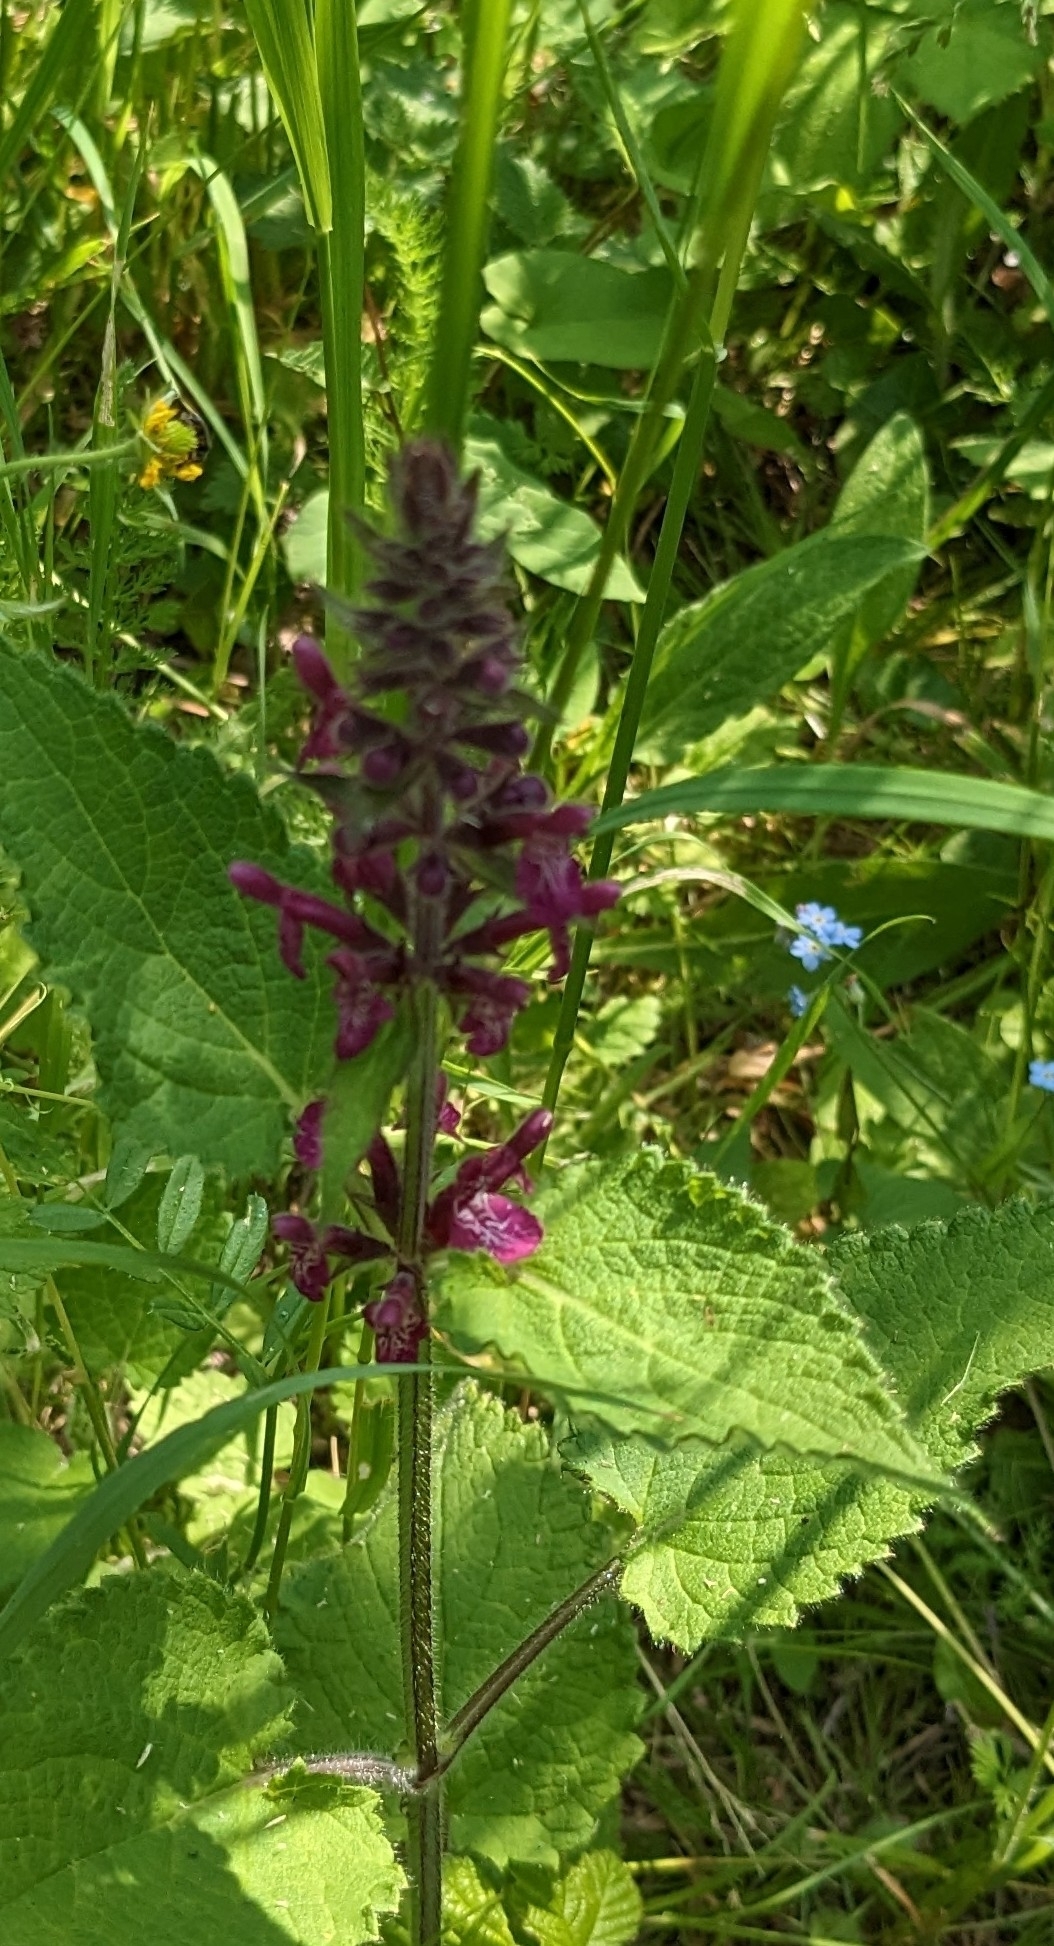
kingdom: Plantae
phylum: Tracheophyta
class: Magnoliopsida
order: Lamiales
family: Lamiaceae
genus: Stachys
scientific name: Stachys sylvatica
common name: Hedge woundwort
